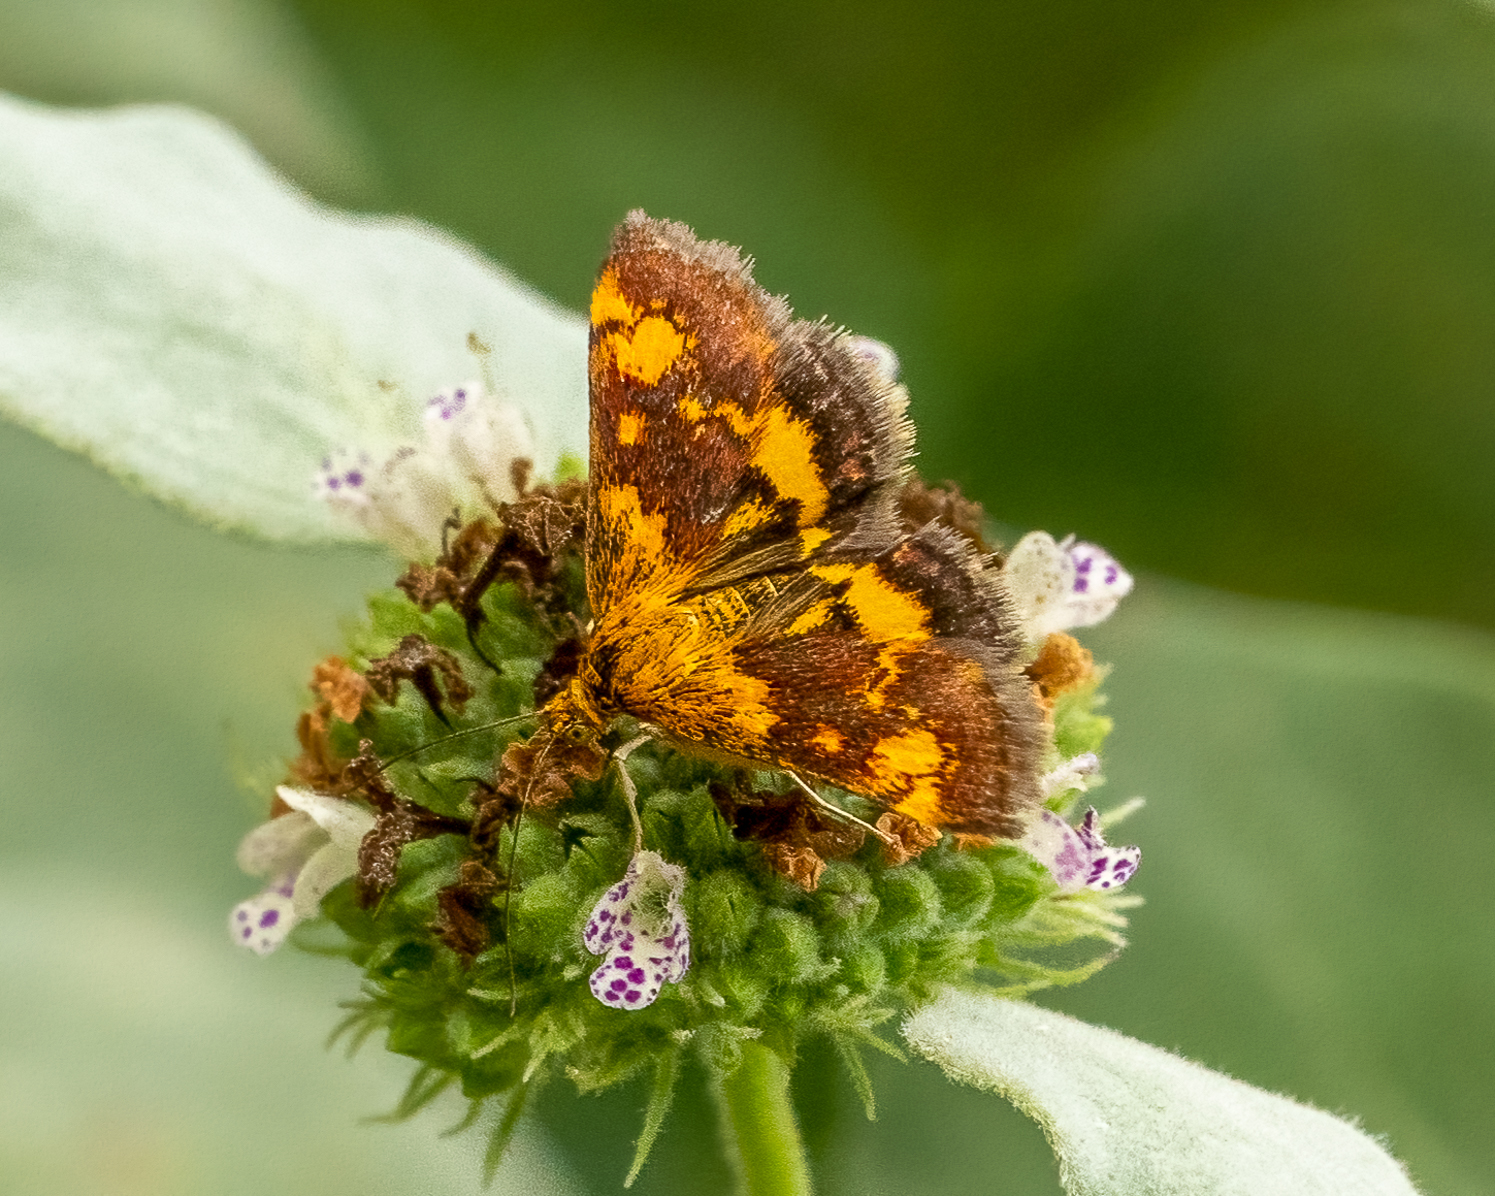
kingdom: Animalia
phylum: Arthropoda
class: Insecta
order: Lepidoptera
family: Crambidae
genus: Pyrausta
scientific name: Pyrausta orphisalis
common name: Orange mint moth
